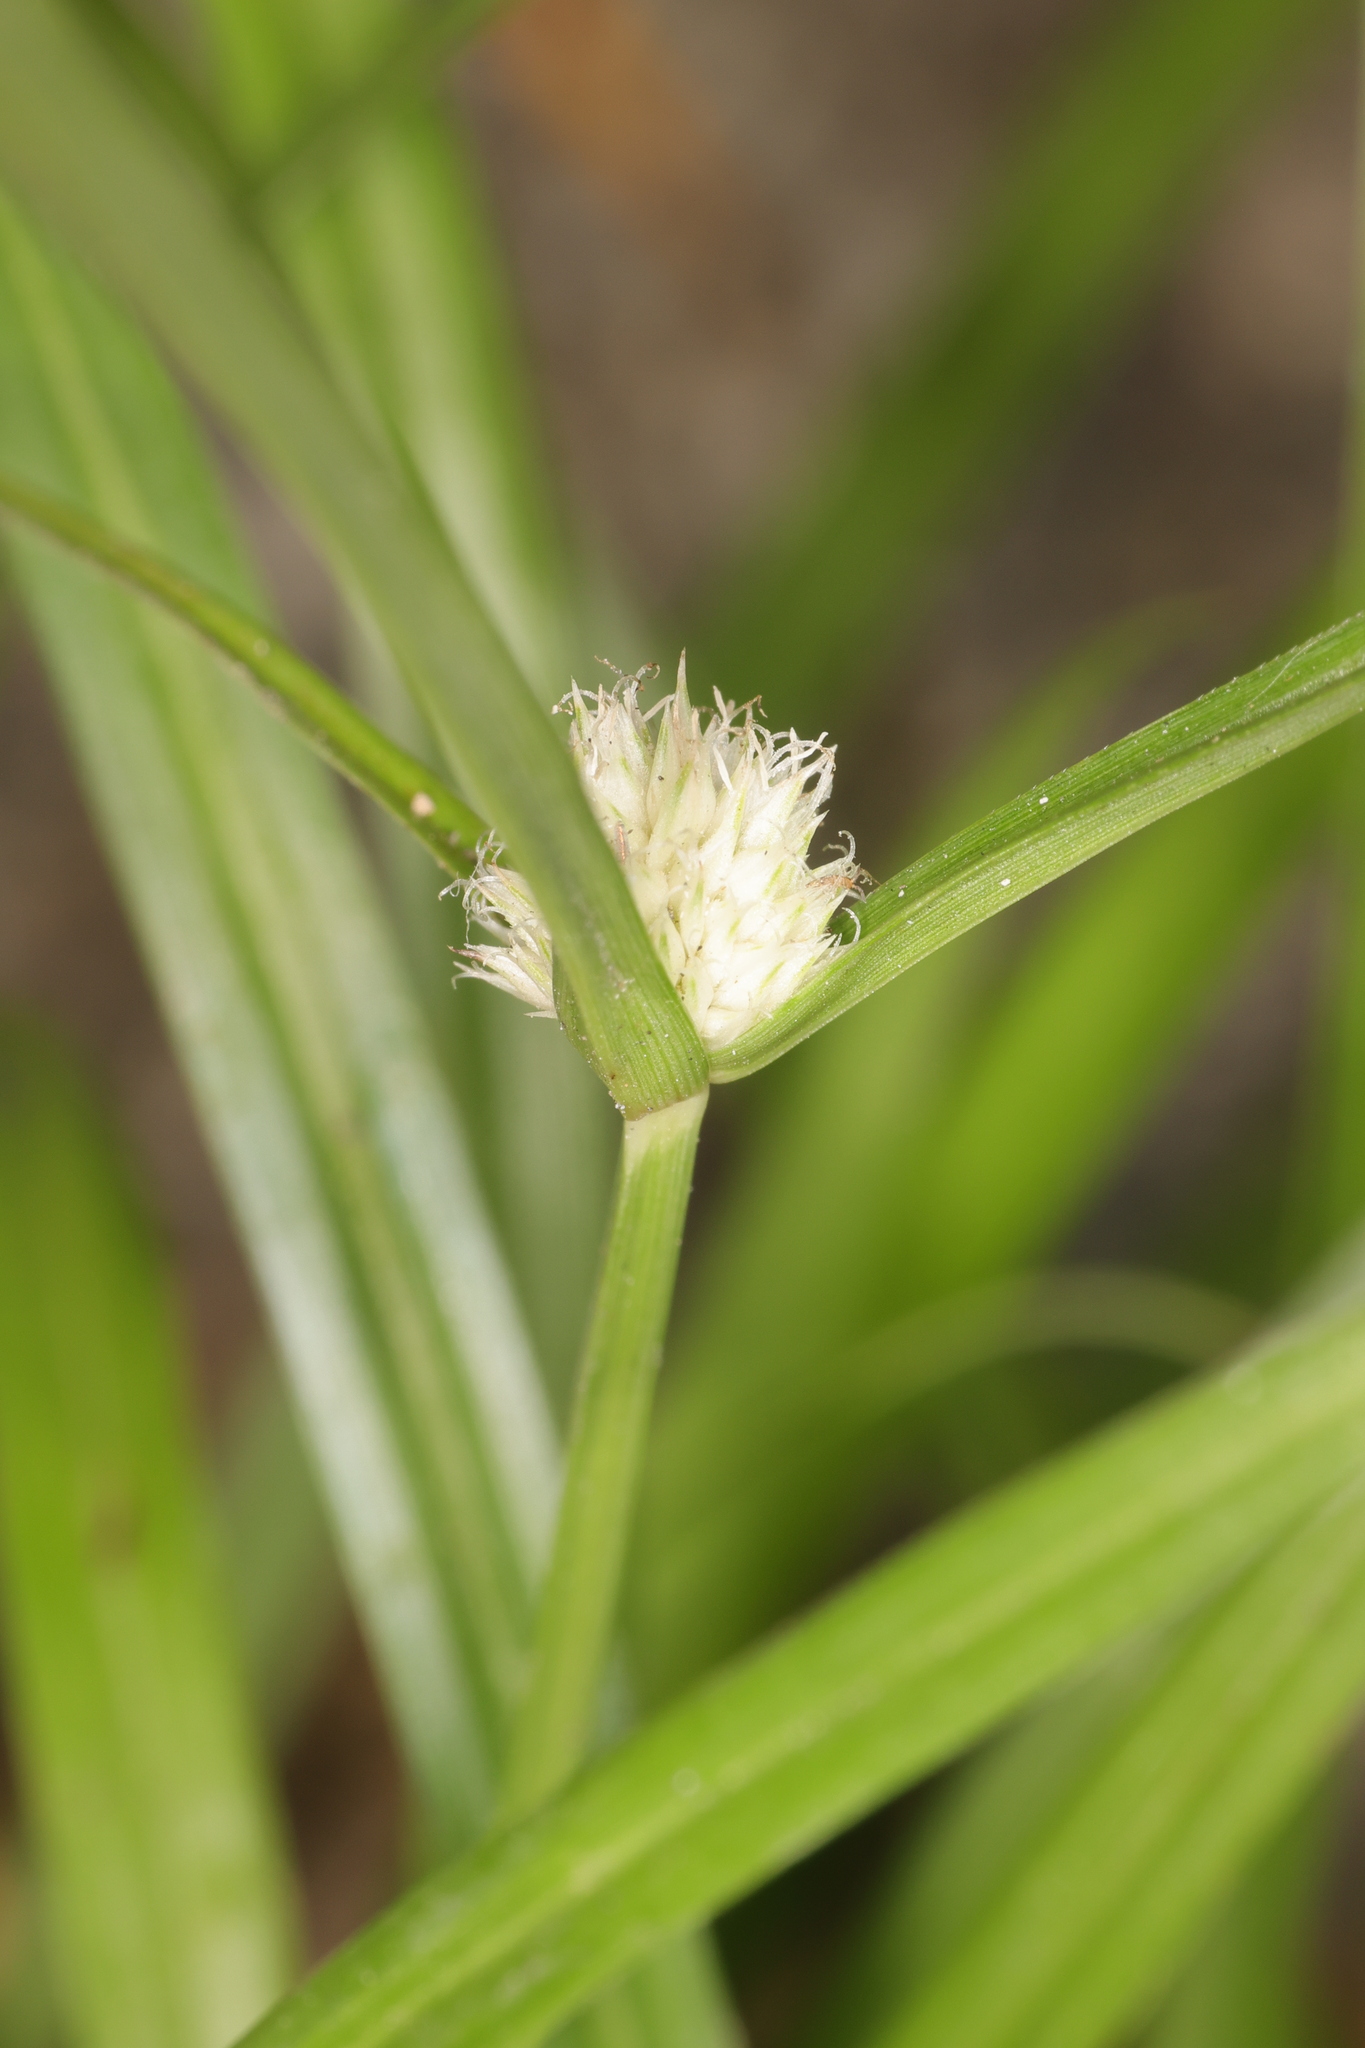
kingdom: Plantae
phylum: Tracheophyta
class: Liliopsida
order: Poales
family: Cyperaceae
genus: Cyperus
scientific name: Cyperus mindorensis
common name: Flatsedge
